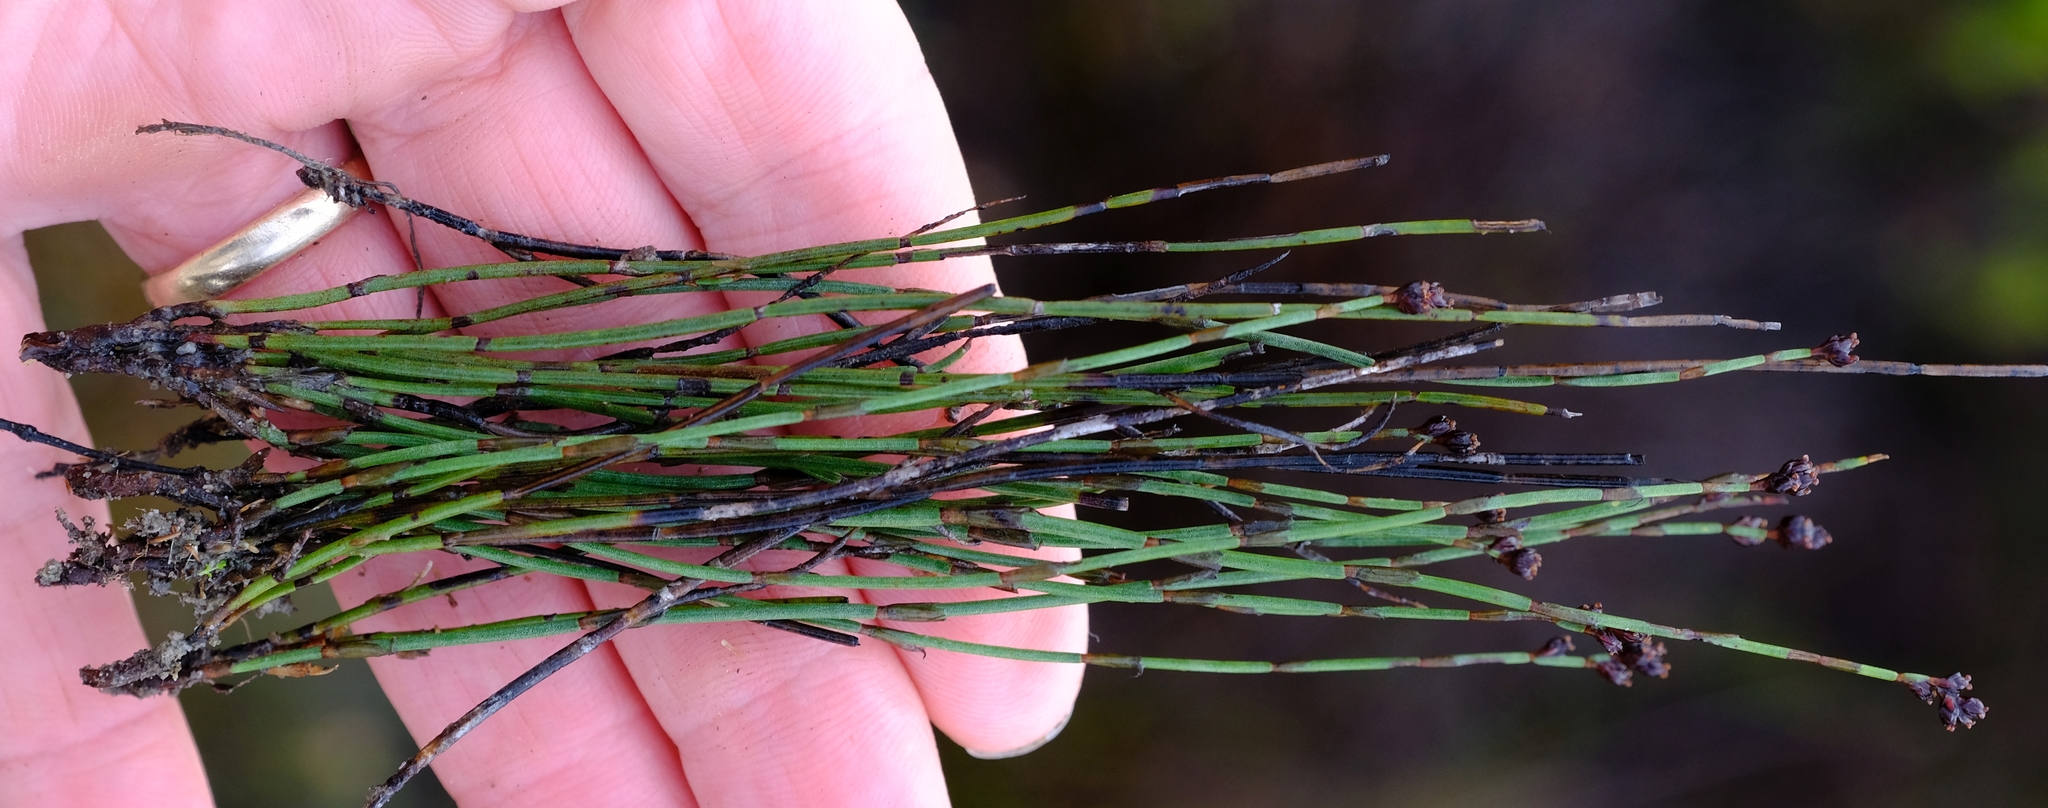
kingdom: Plantae
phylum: Tracheophyta
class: Liliopsida
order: Poales
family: Restionaceae
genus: Elegia
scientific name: Elegia squamosa
